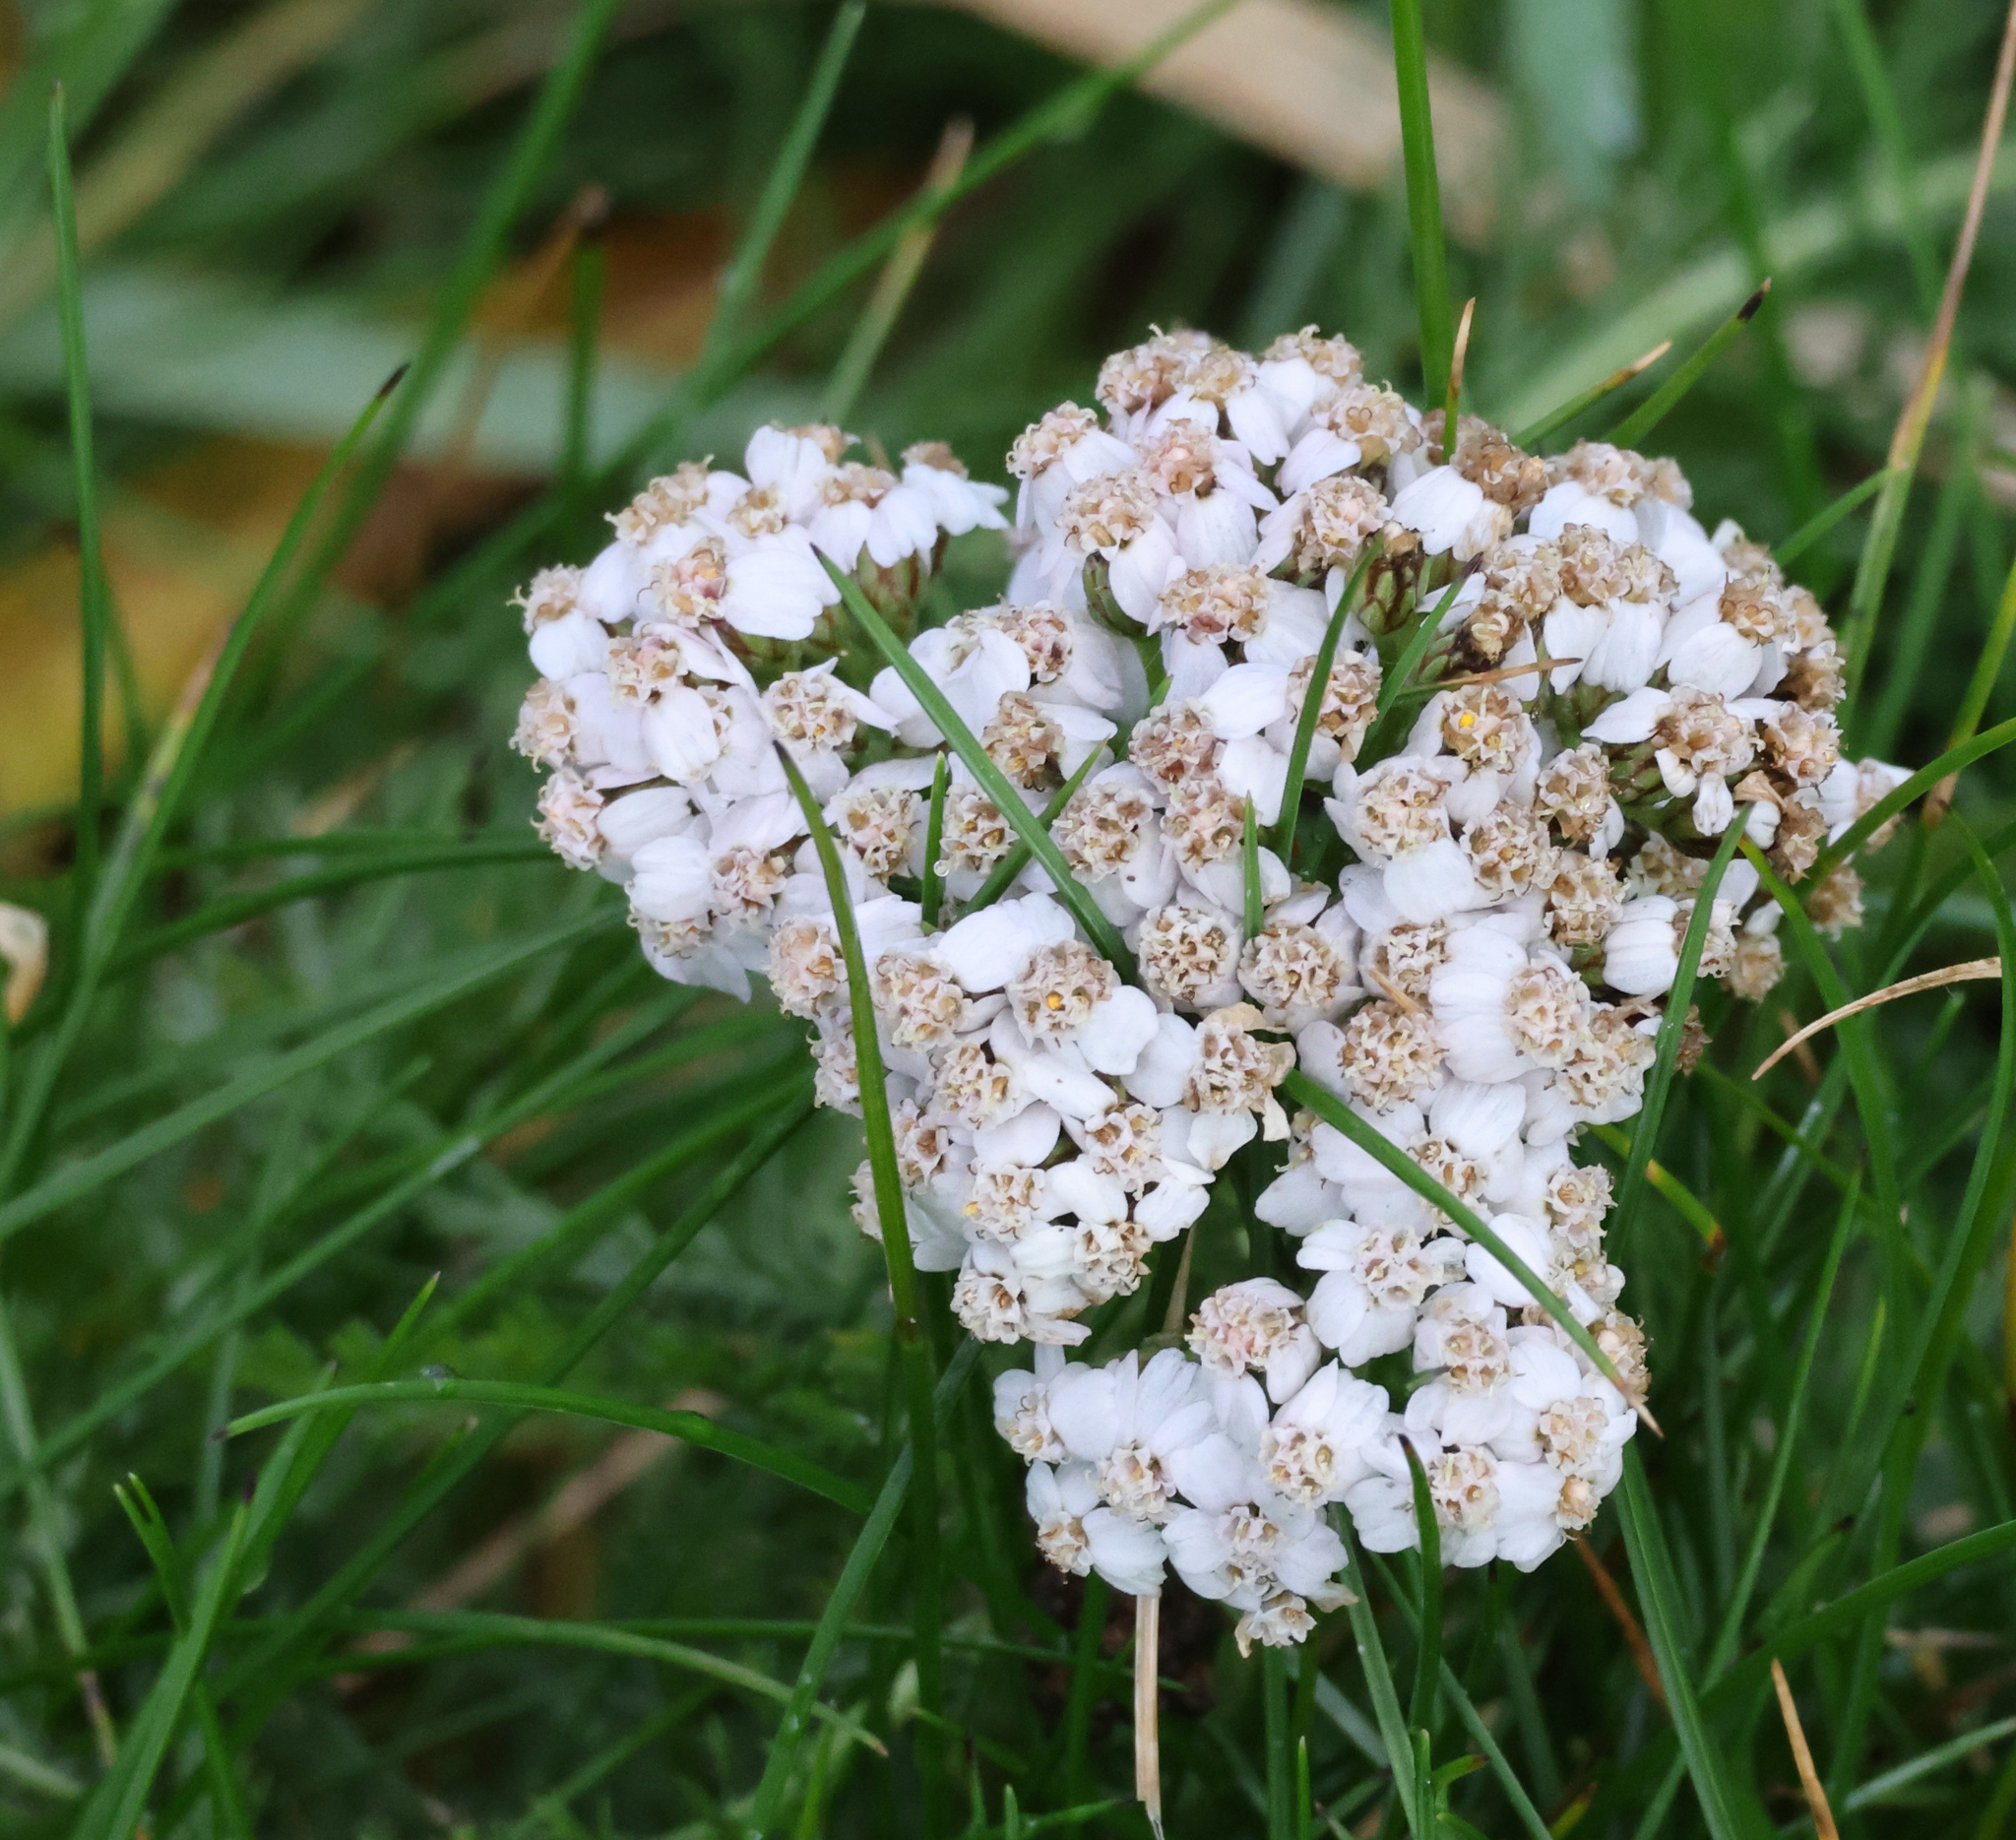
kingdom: Plantae
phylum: Tracheophyta
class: Magnoliopsida
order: Asterales
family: Asteraceae
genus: Achillea
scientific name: Achillea millefolium
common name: Yarrow
